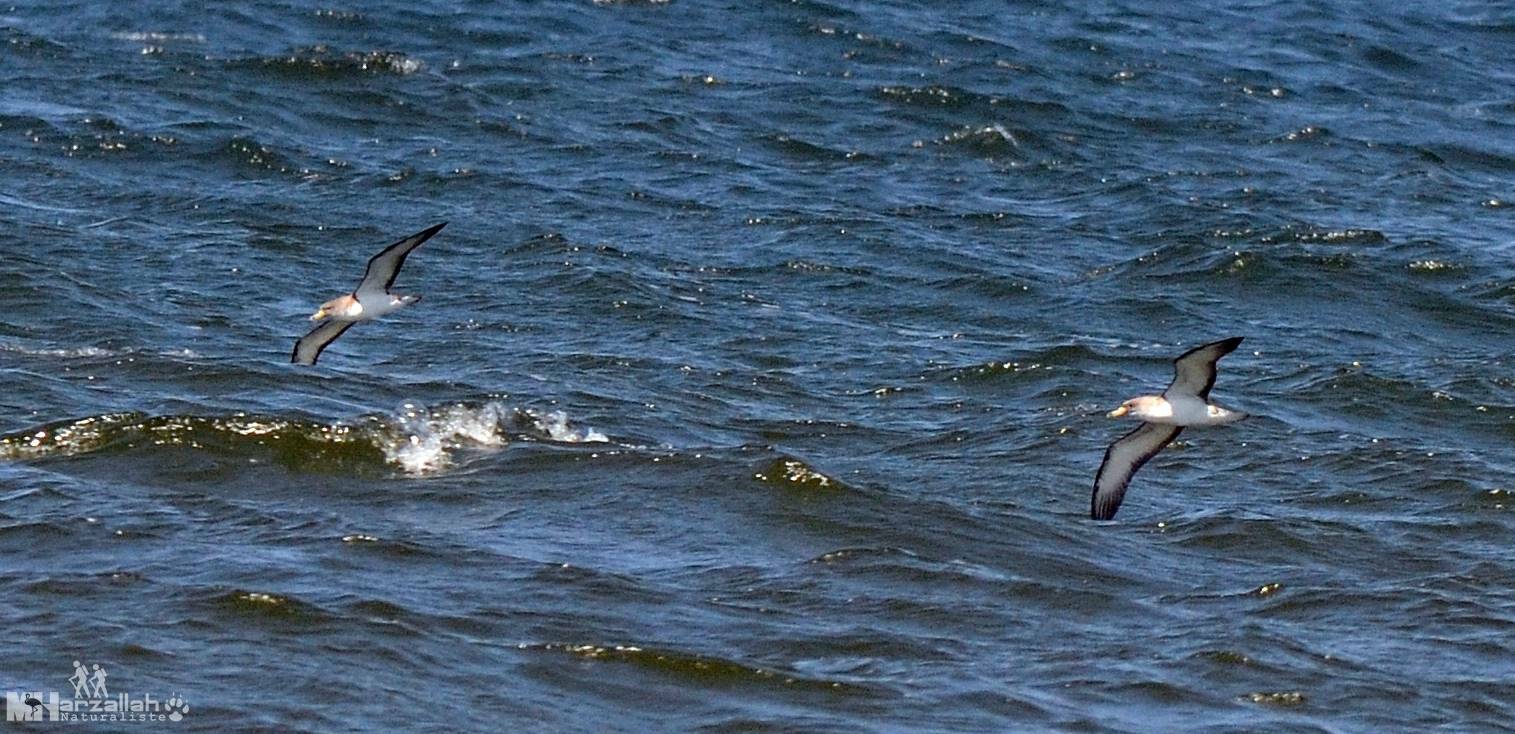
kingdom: Animalia
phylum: Chordata
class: Aves
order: Procellariiformes
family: Procellariidae
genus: Calonectris
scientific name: Calonectris diomedea
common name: Cory's shearwater
